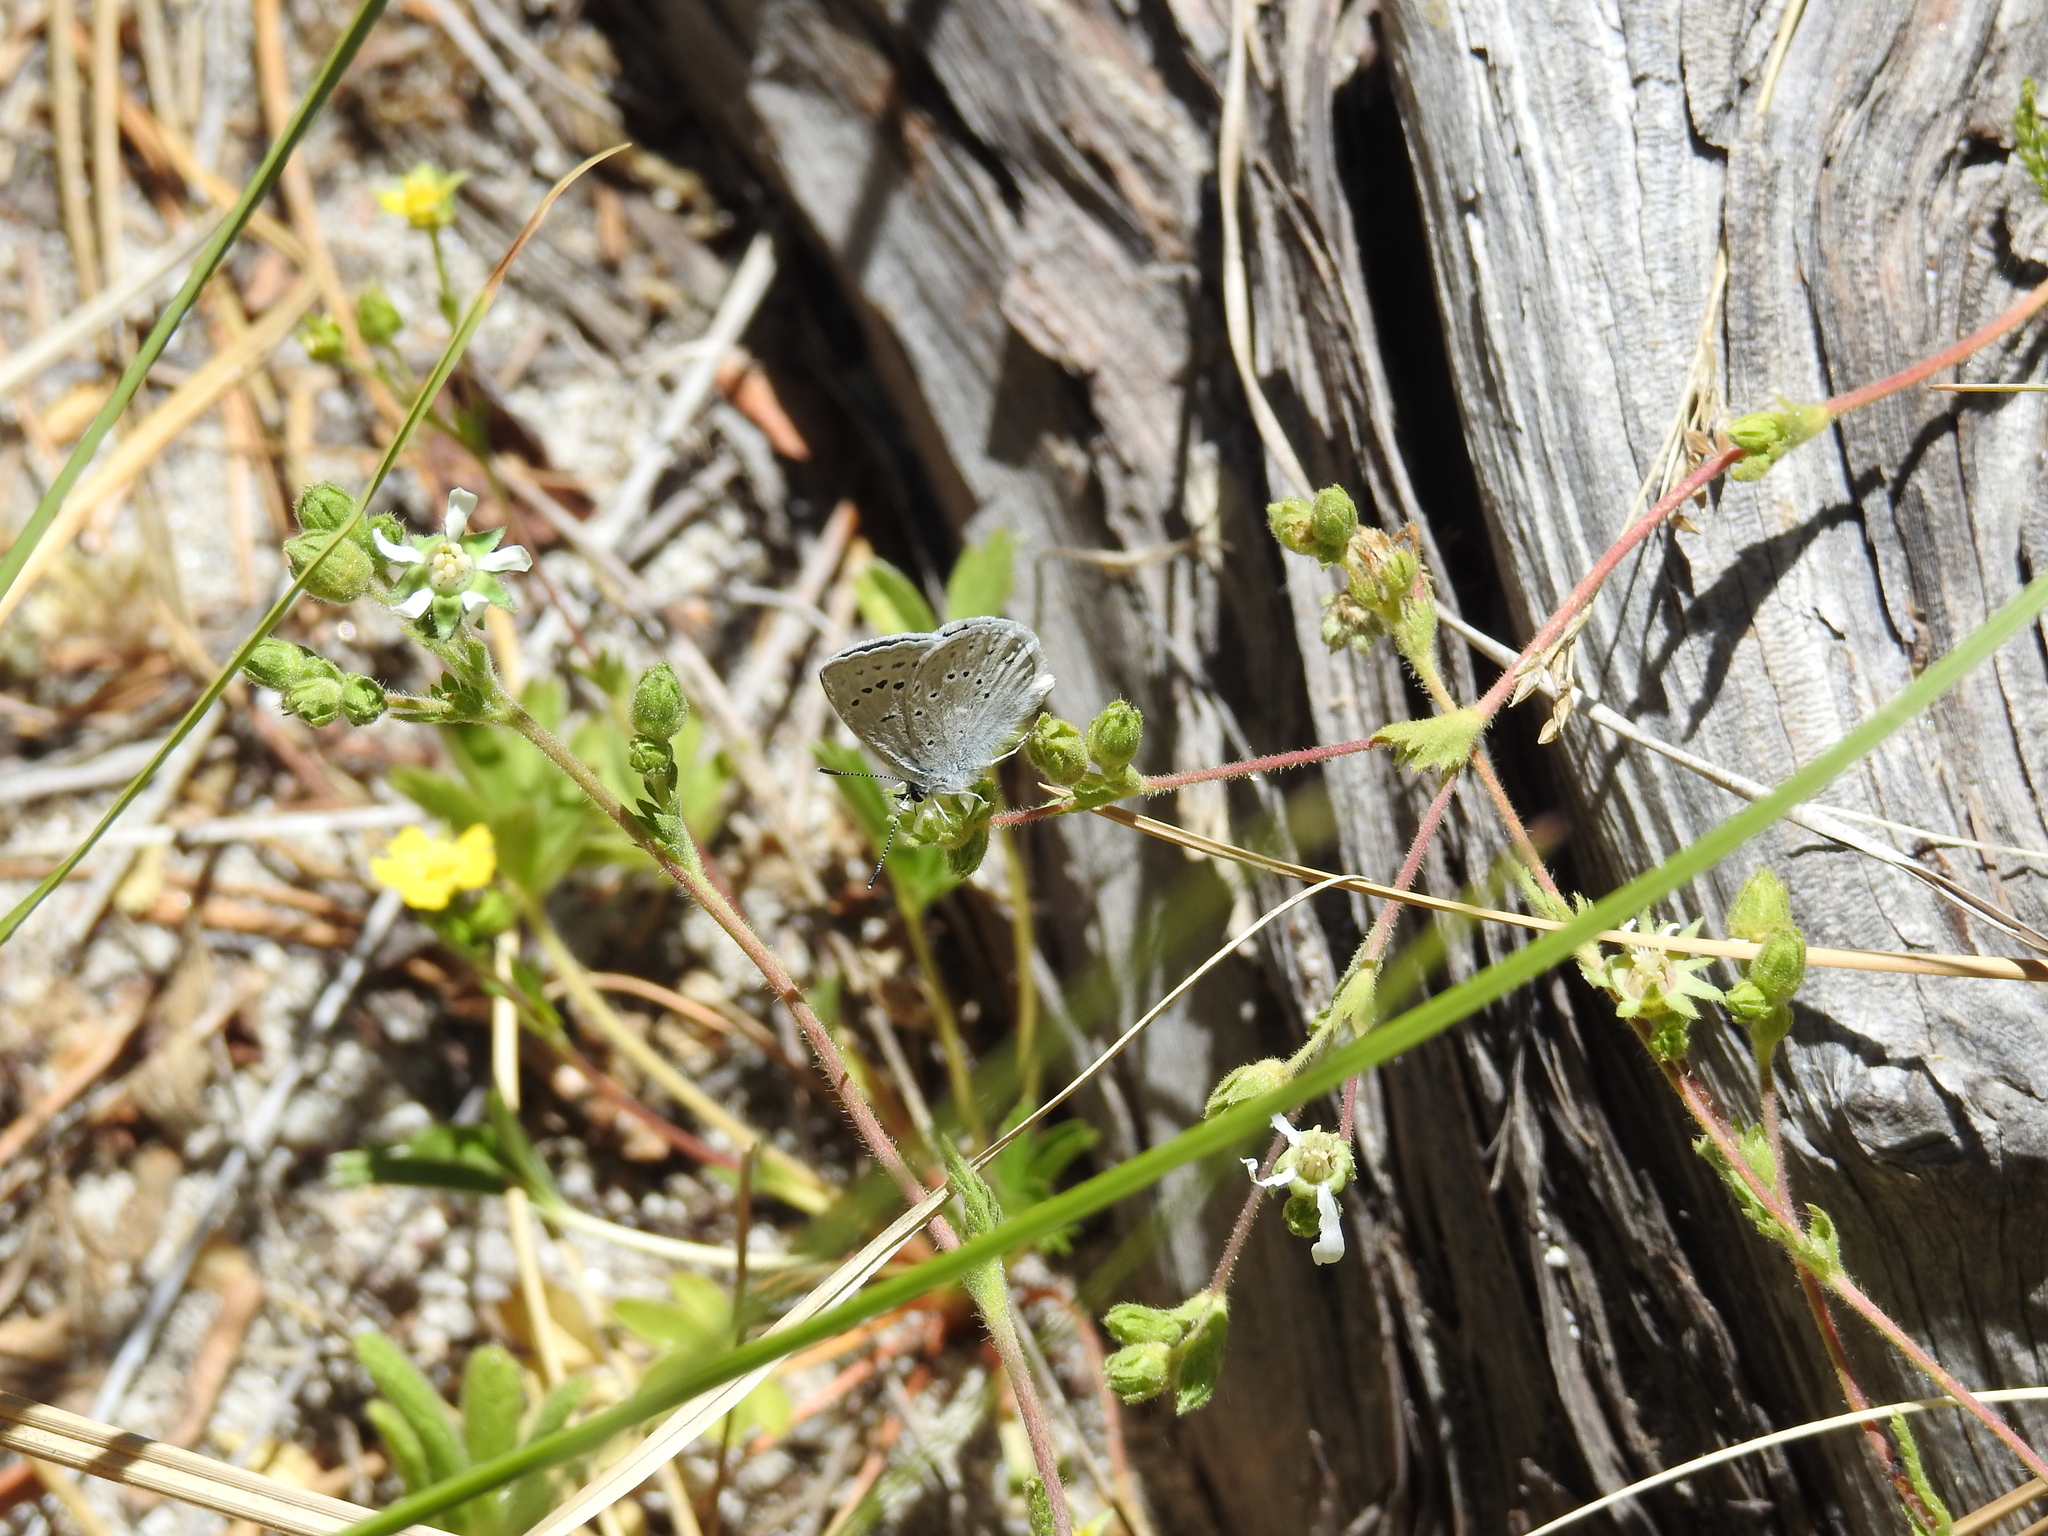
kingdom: Animalia
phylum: Arthropoda
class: Insecta
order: Lepidoptera
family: Lycaenidae
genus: Icaricia
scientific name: Icaricia icarioides
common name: Boisduval's blue
